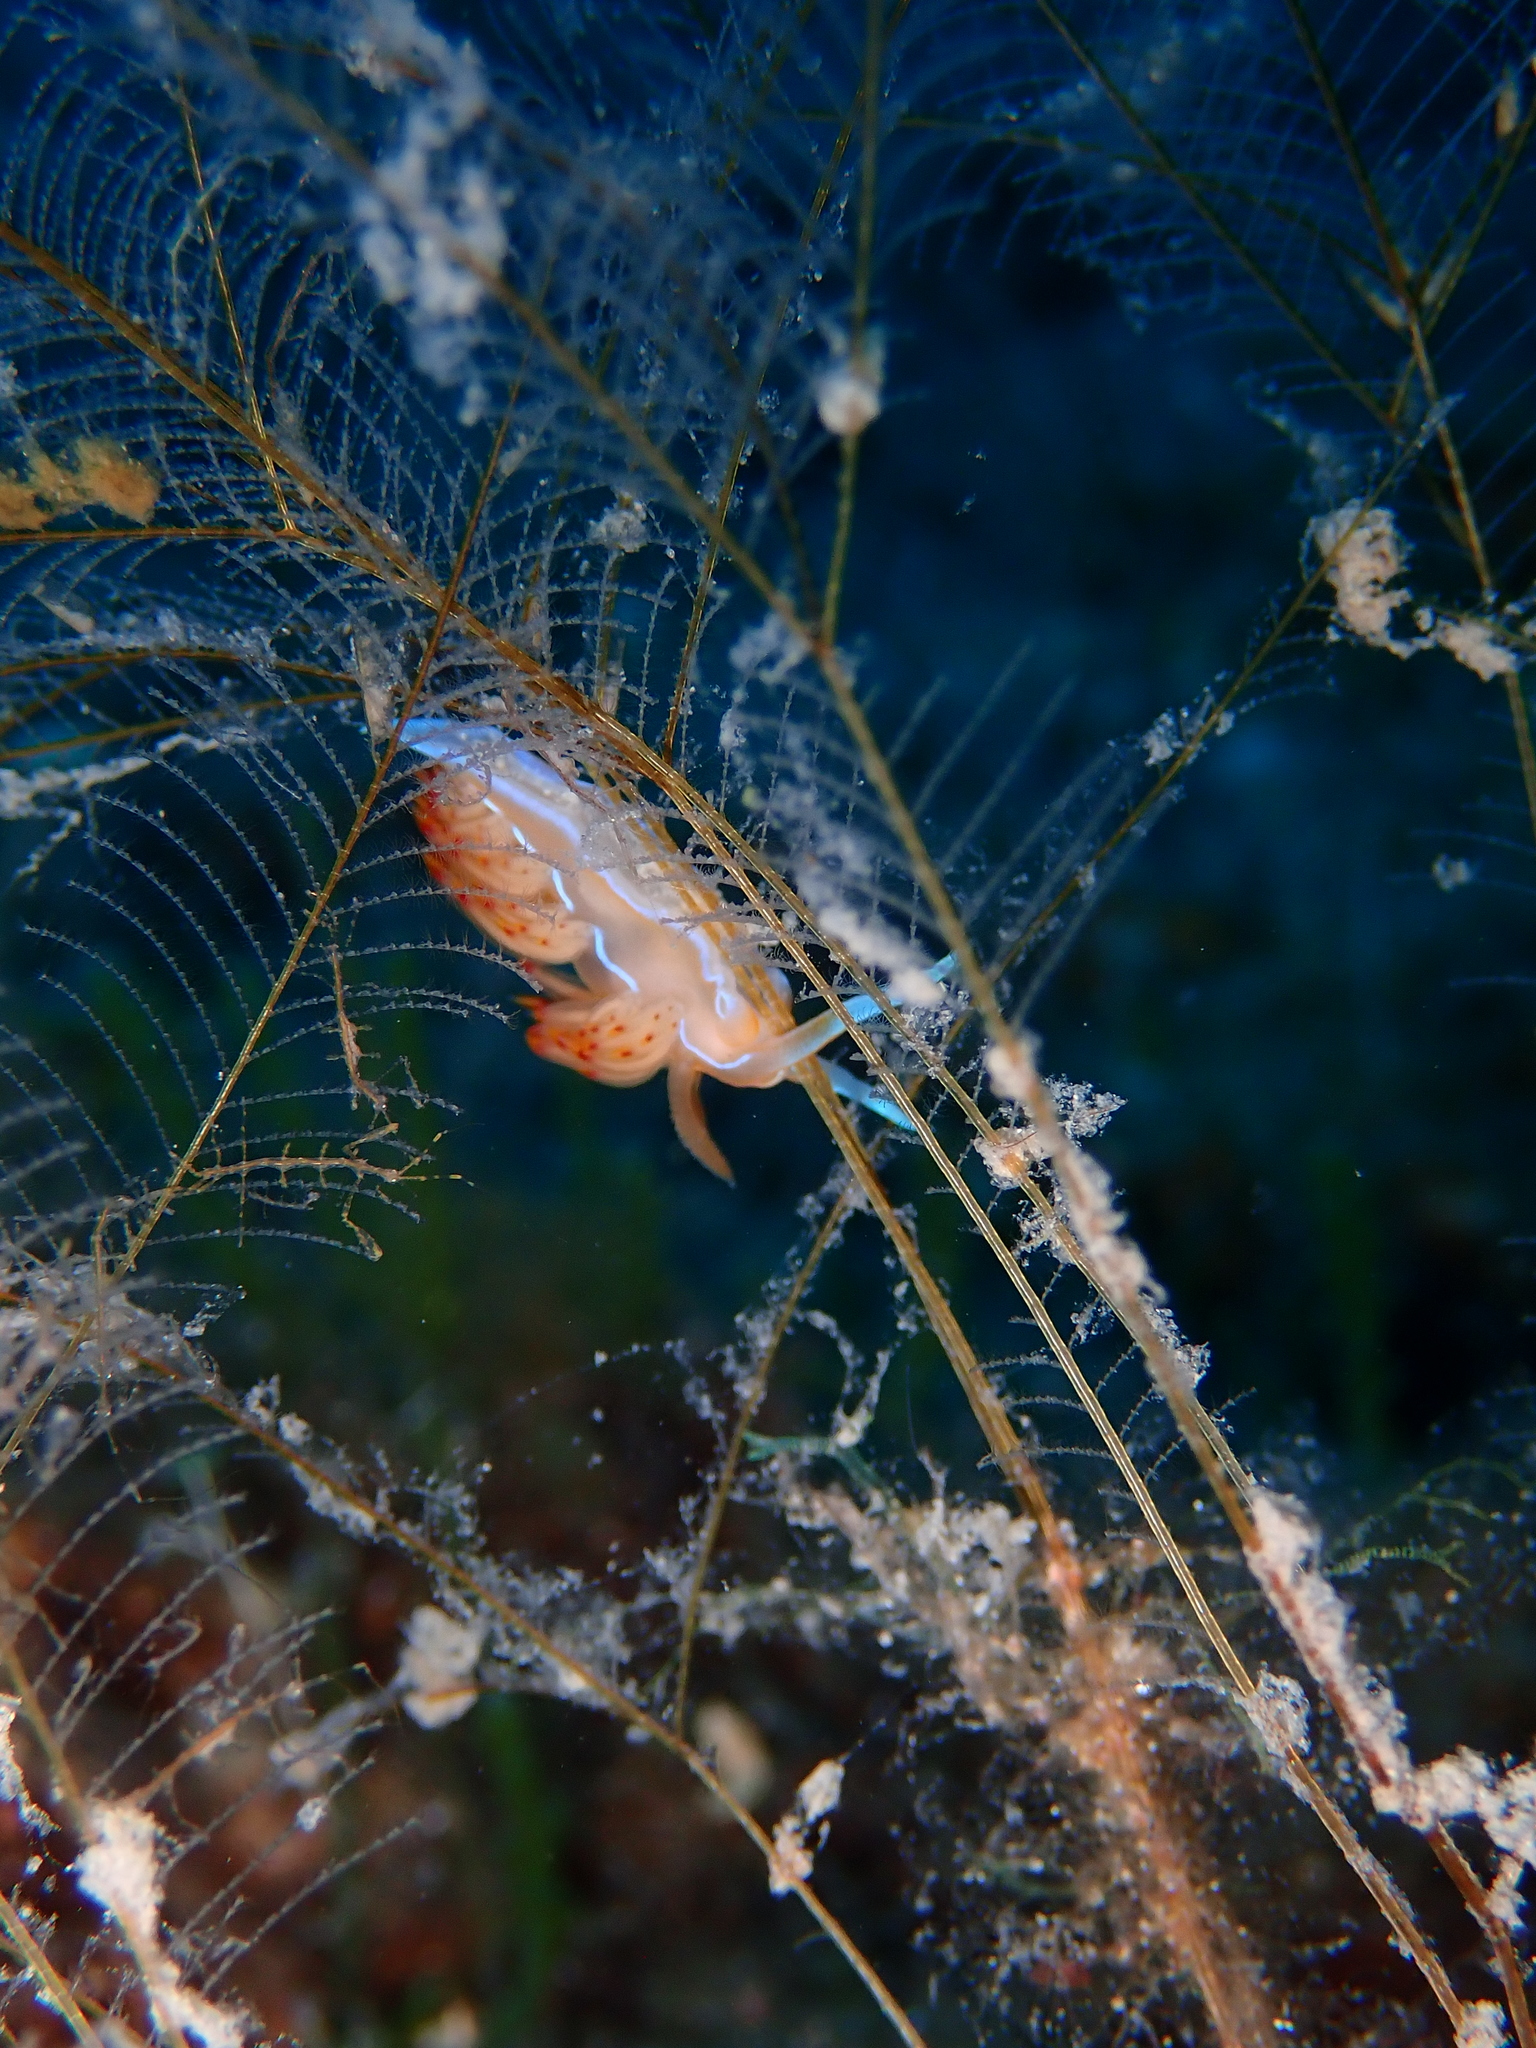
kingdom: Animalia
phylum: Mollusca
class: Gastropoda
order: Nudibranchia
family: Myrrhinidae
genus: Nemesignis
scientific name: Nemesignis banyulensis
